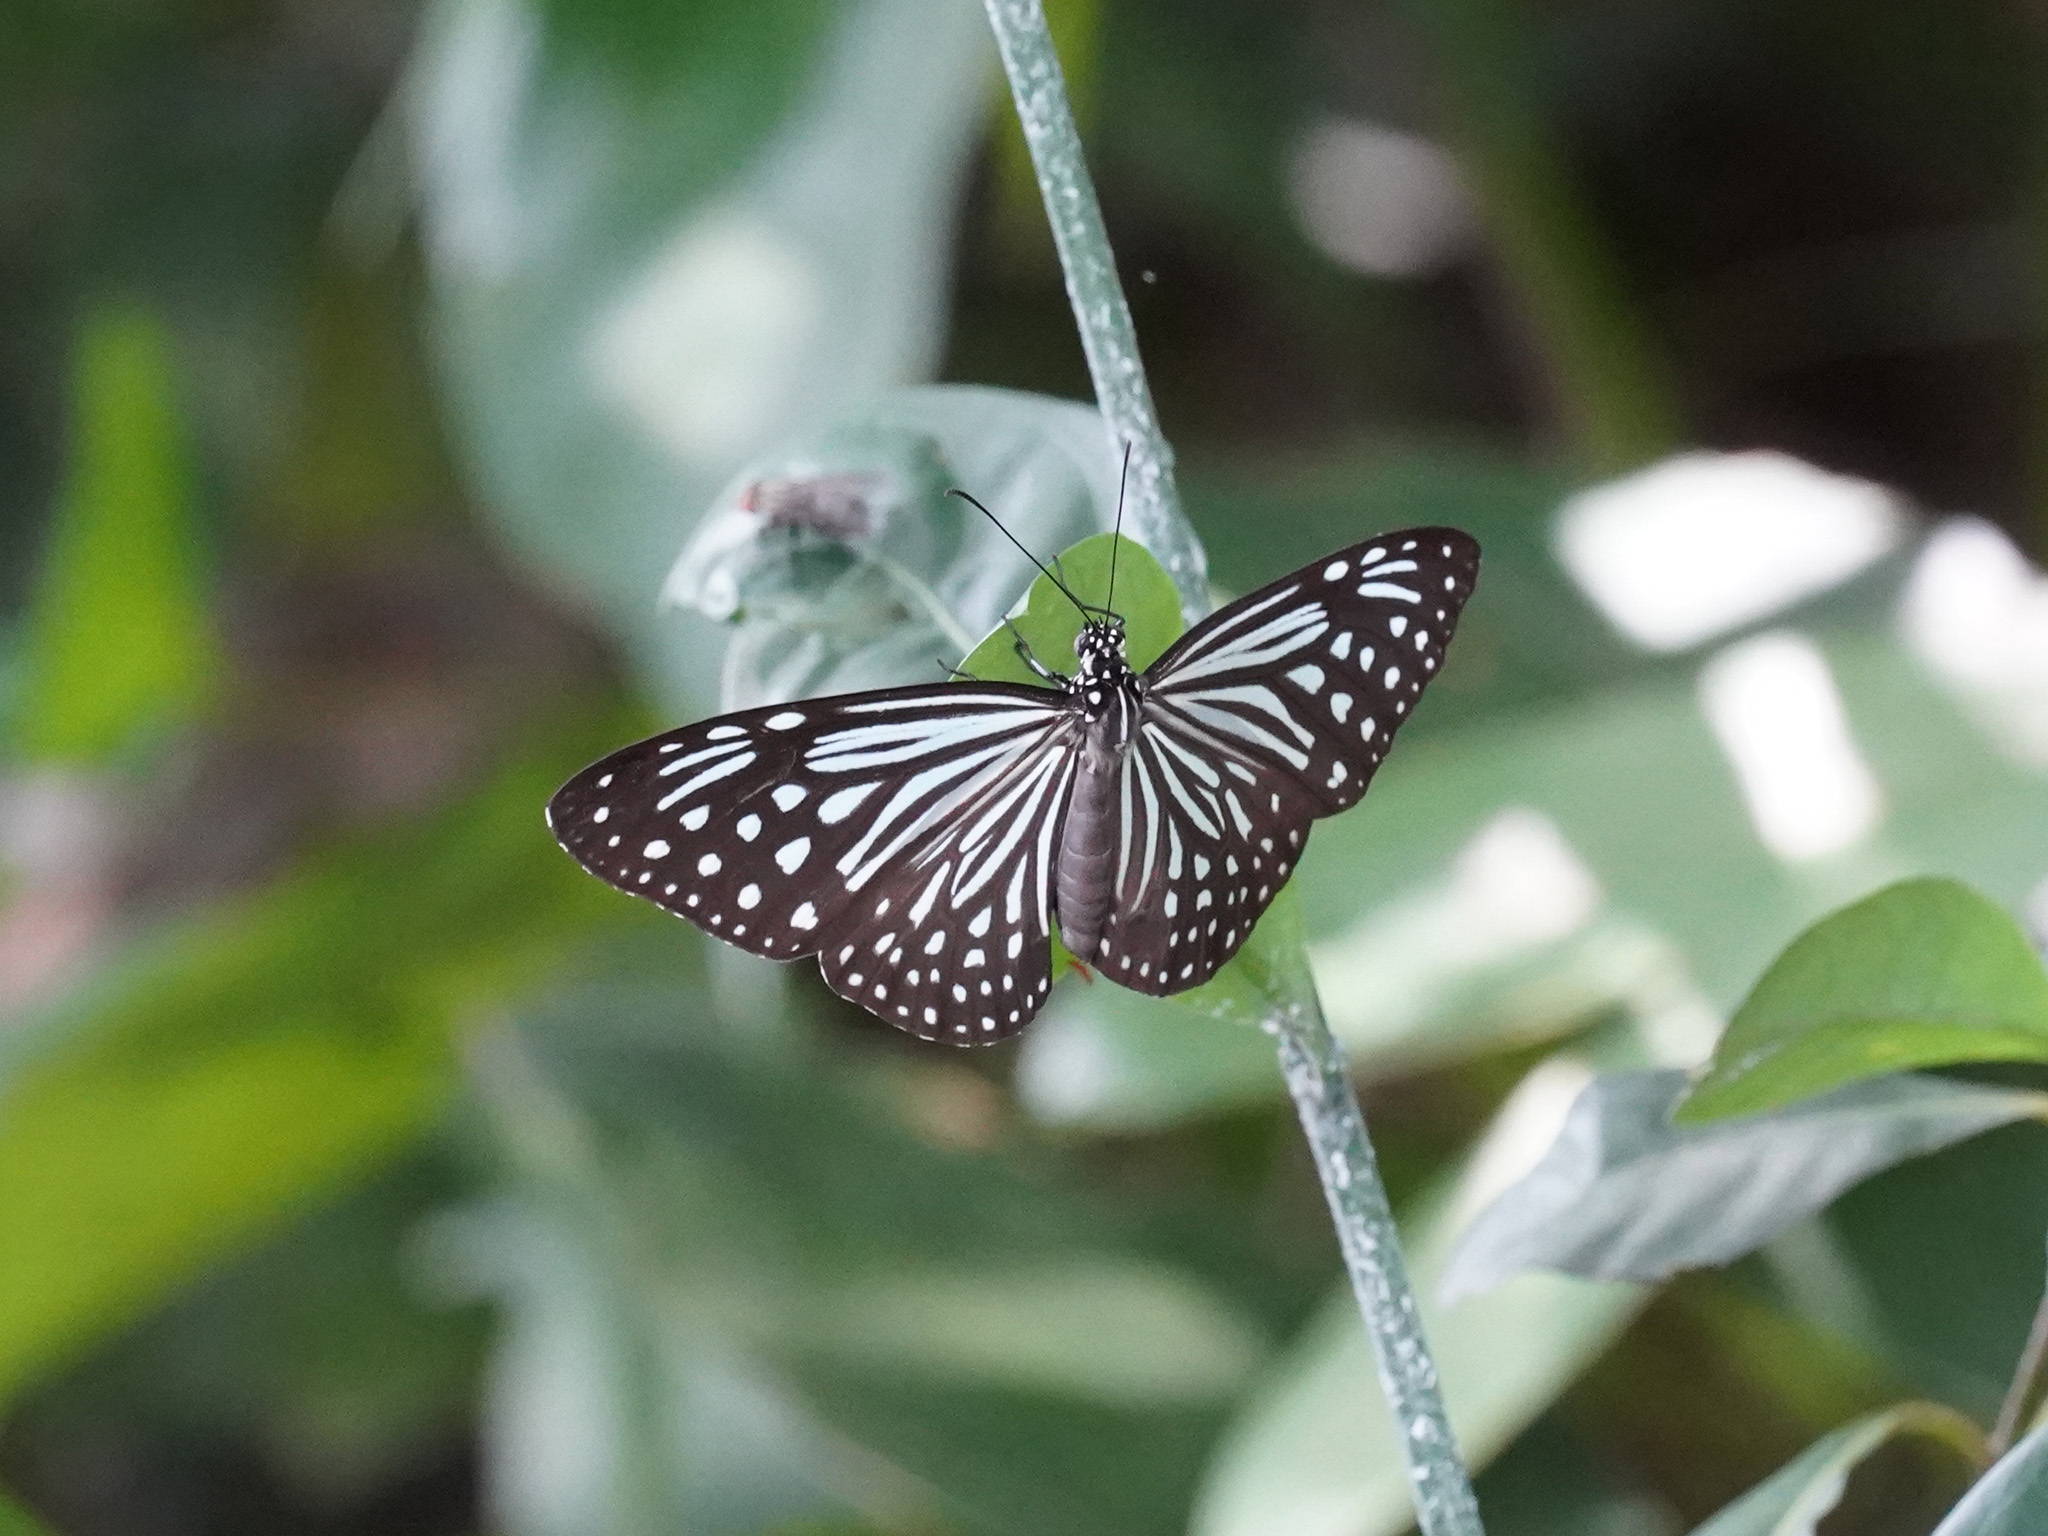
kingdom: Animalia
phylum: Arthropoda
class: Insecta
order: Lepidoptera
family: Nymphalidae
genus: Parantica
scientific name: Parantica agleoides
